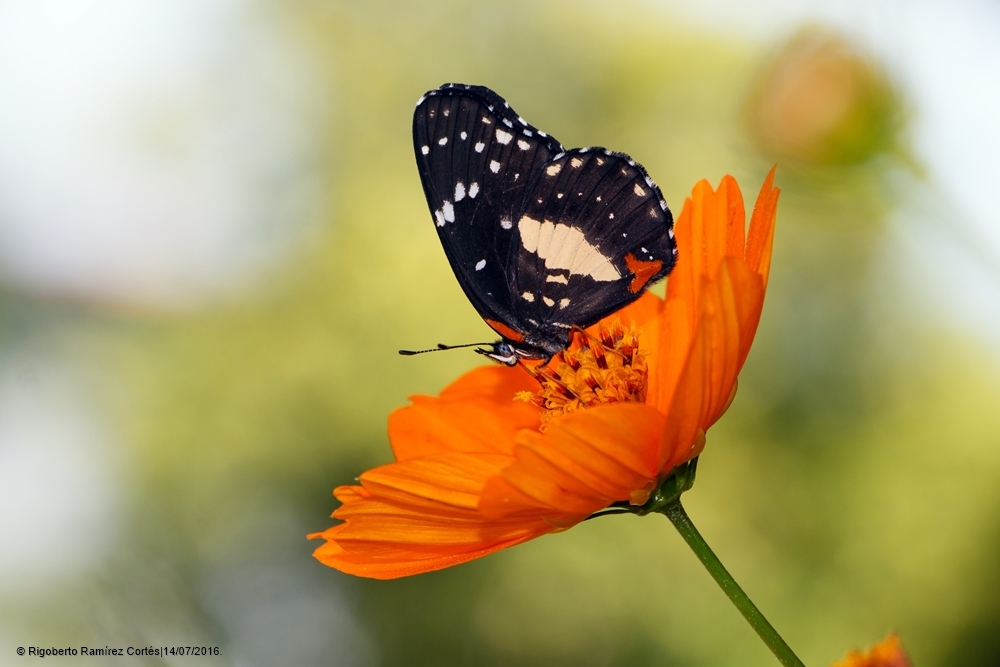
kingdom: Animalia
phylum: Arthropoda
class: Insecta
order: Lepidoptera
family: Nymphalidae
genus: Chlosyne
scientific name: Chlosyne lacinia
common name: Bordered patch
